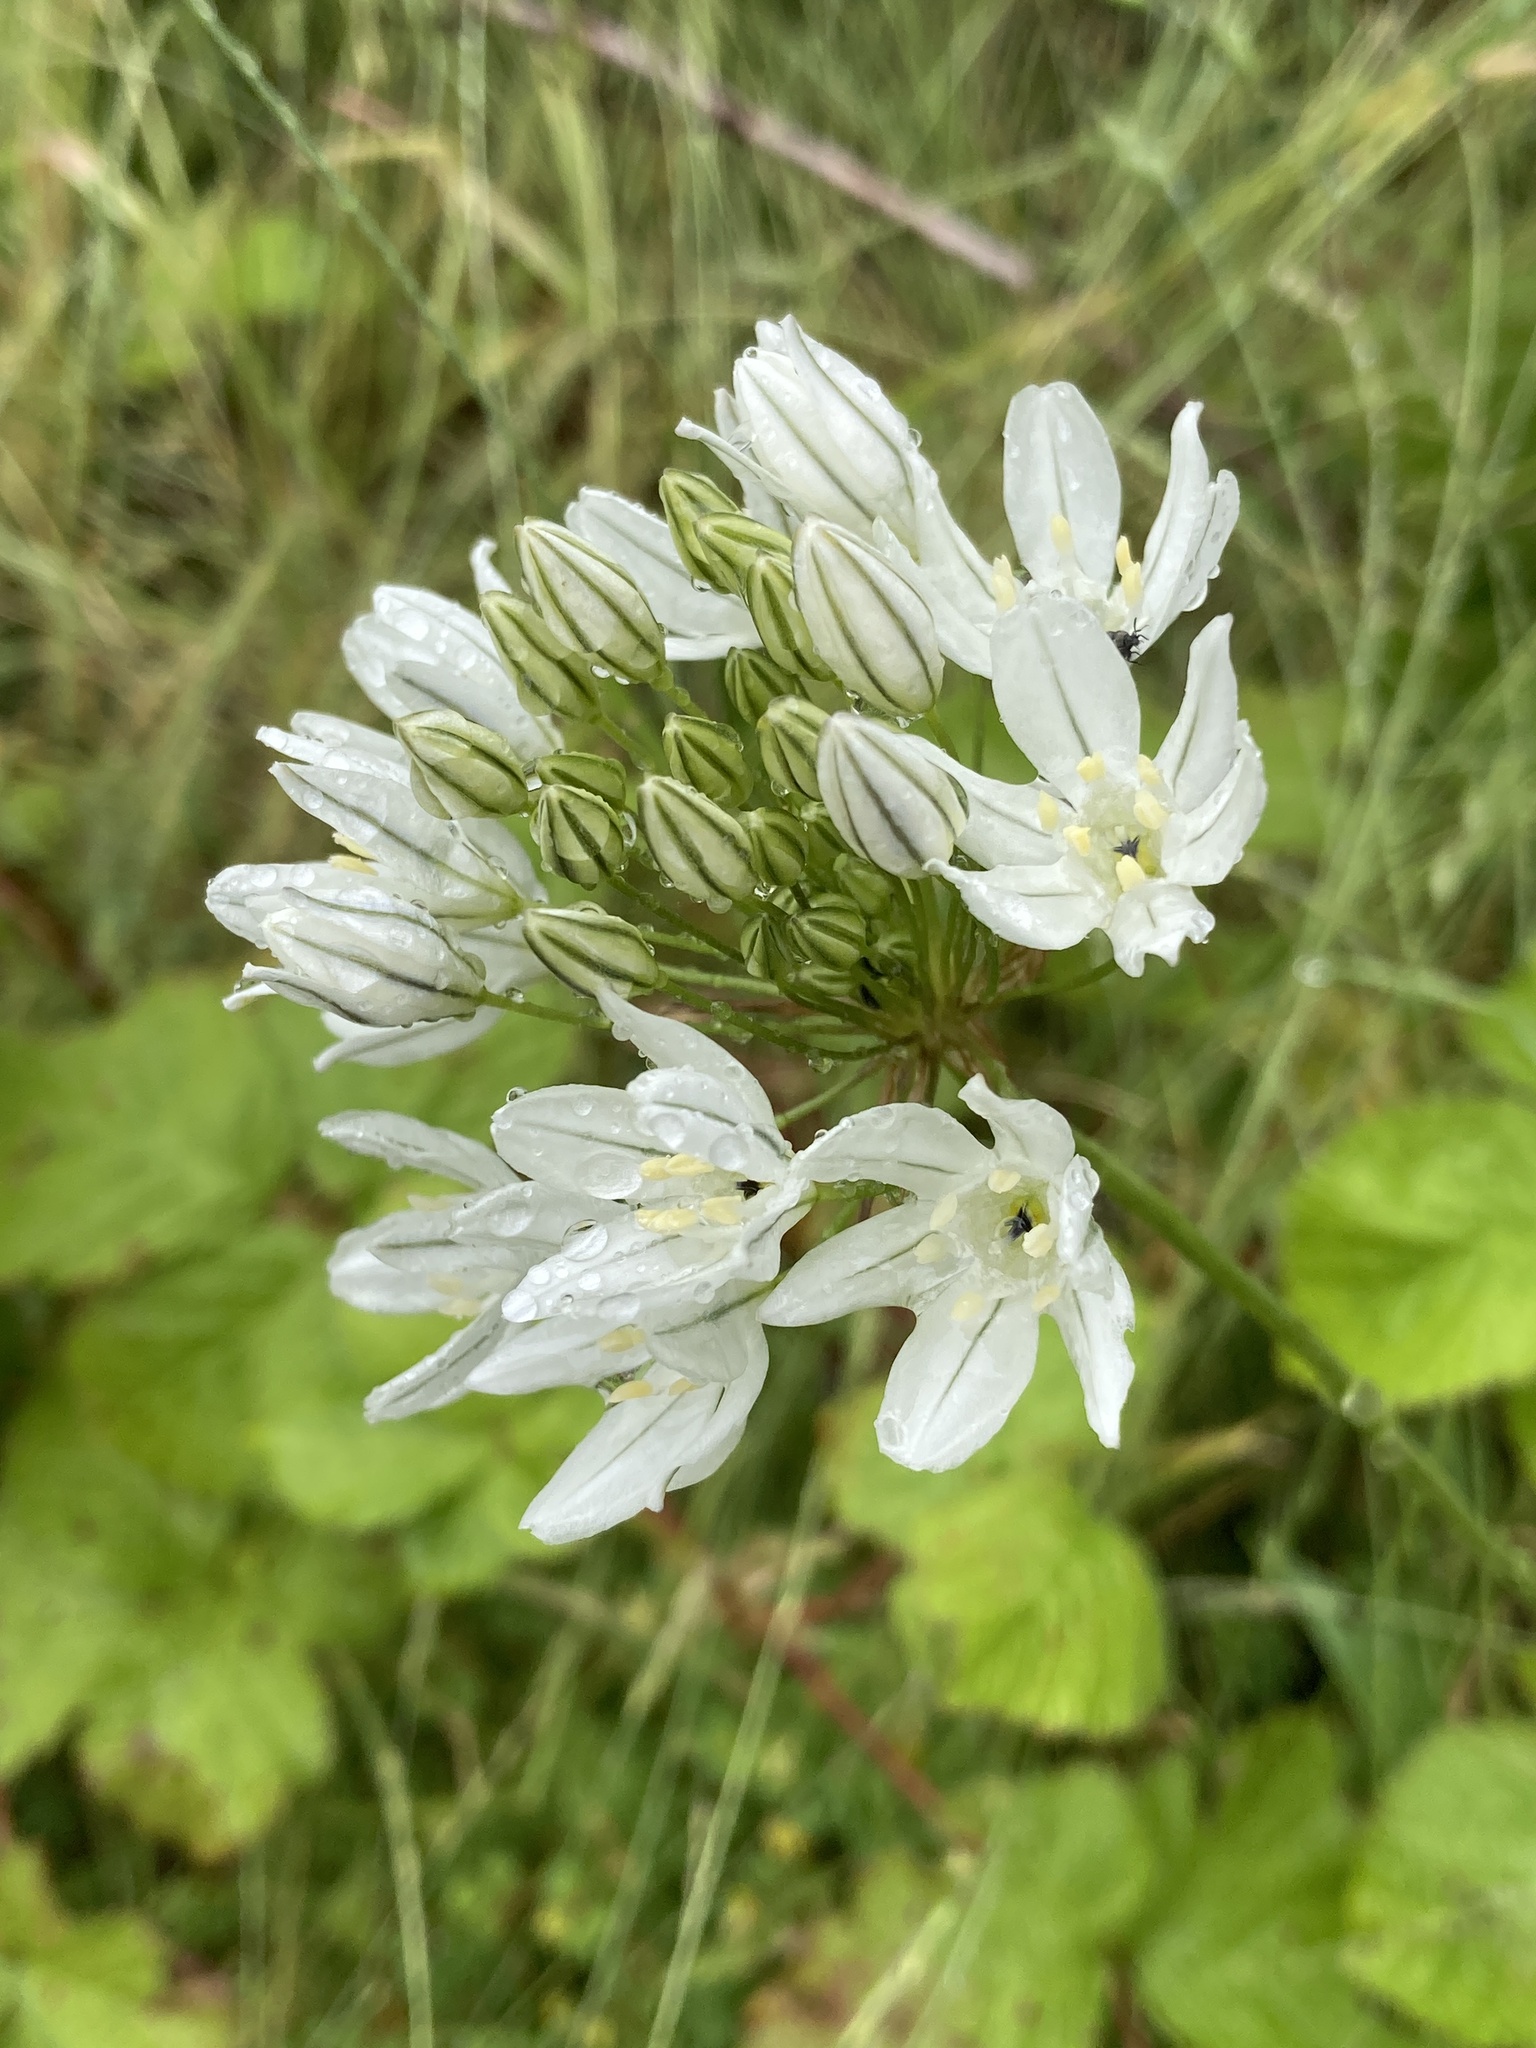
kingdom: Plantae
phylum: Tracheophyta
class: Liliopsida
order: Asparagales
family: Asparagaceae
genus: Triteleia
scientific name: Triteleia hyacinthina
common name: White brodiaea
